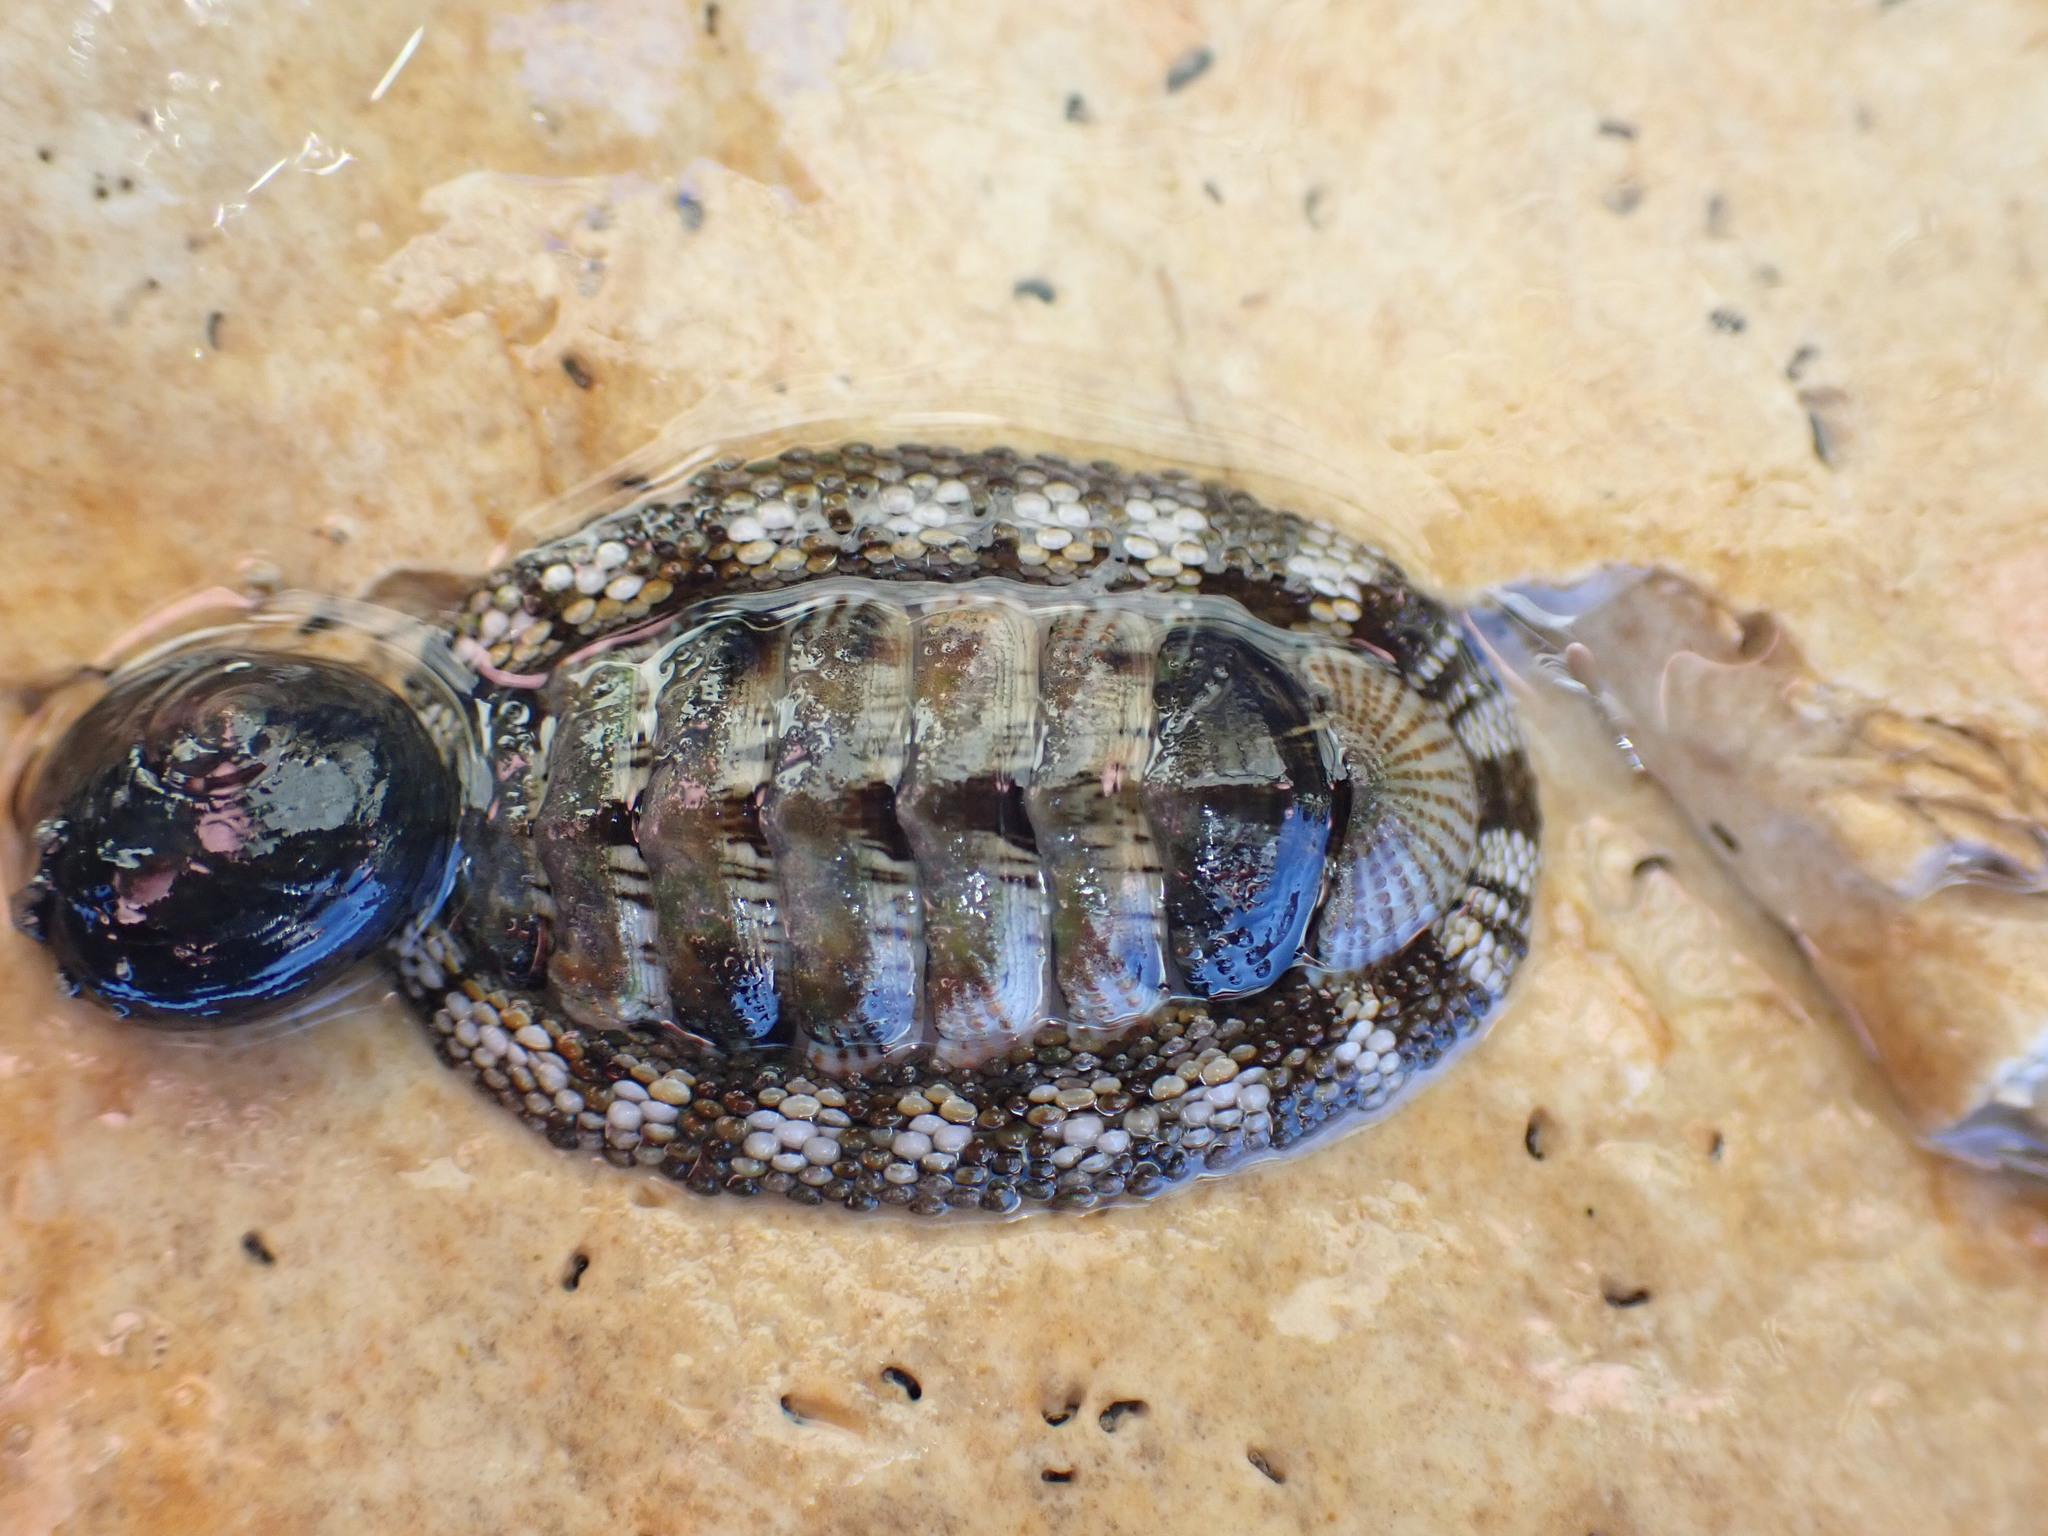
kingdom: Animalia
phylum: Mollusca
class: Polyplacophora
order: Chitonida
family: Chitonidae
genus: Sypharochiton
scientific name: Sypharochiton pelliserpentis
